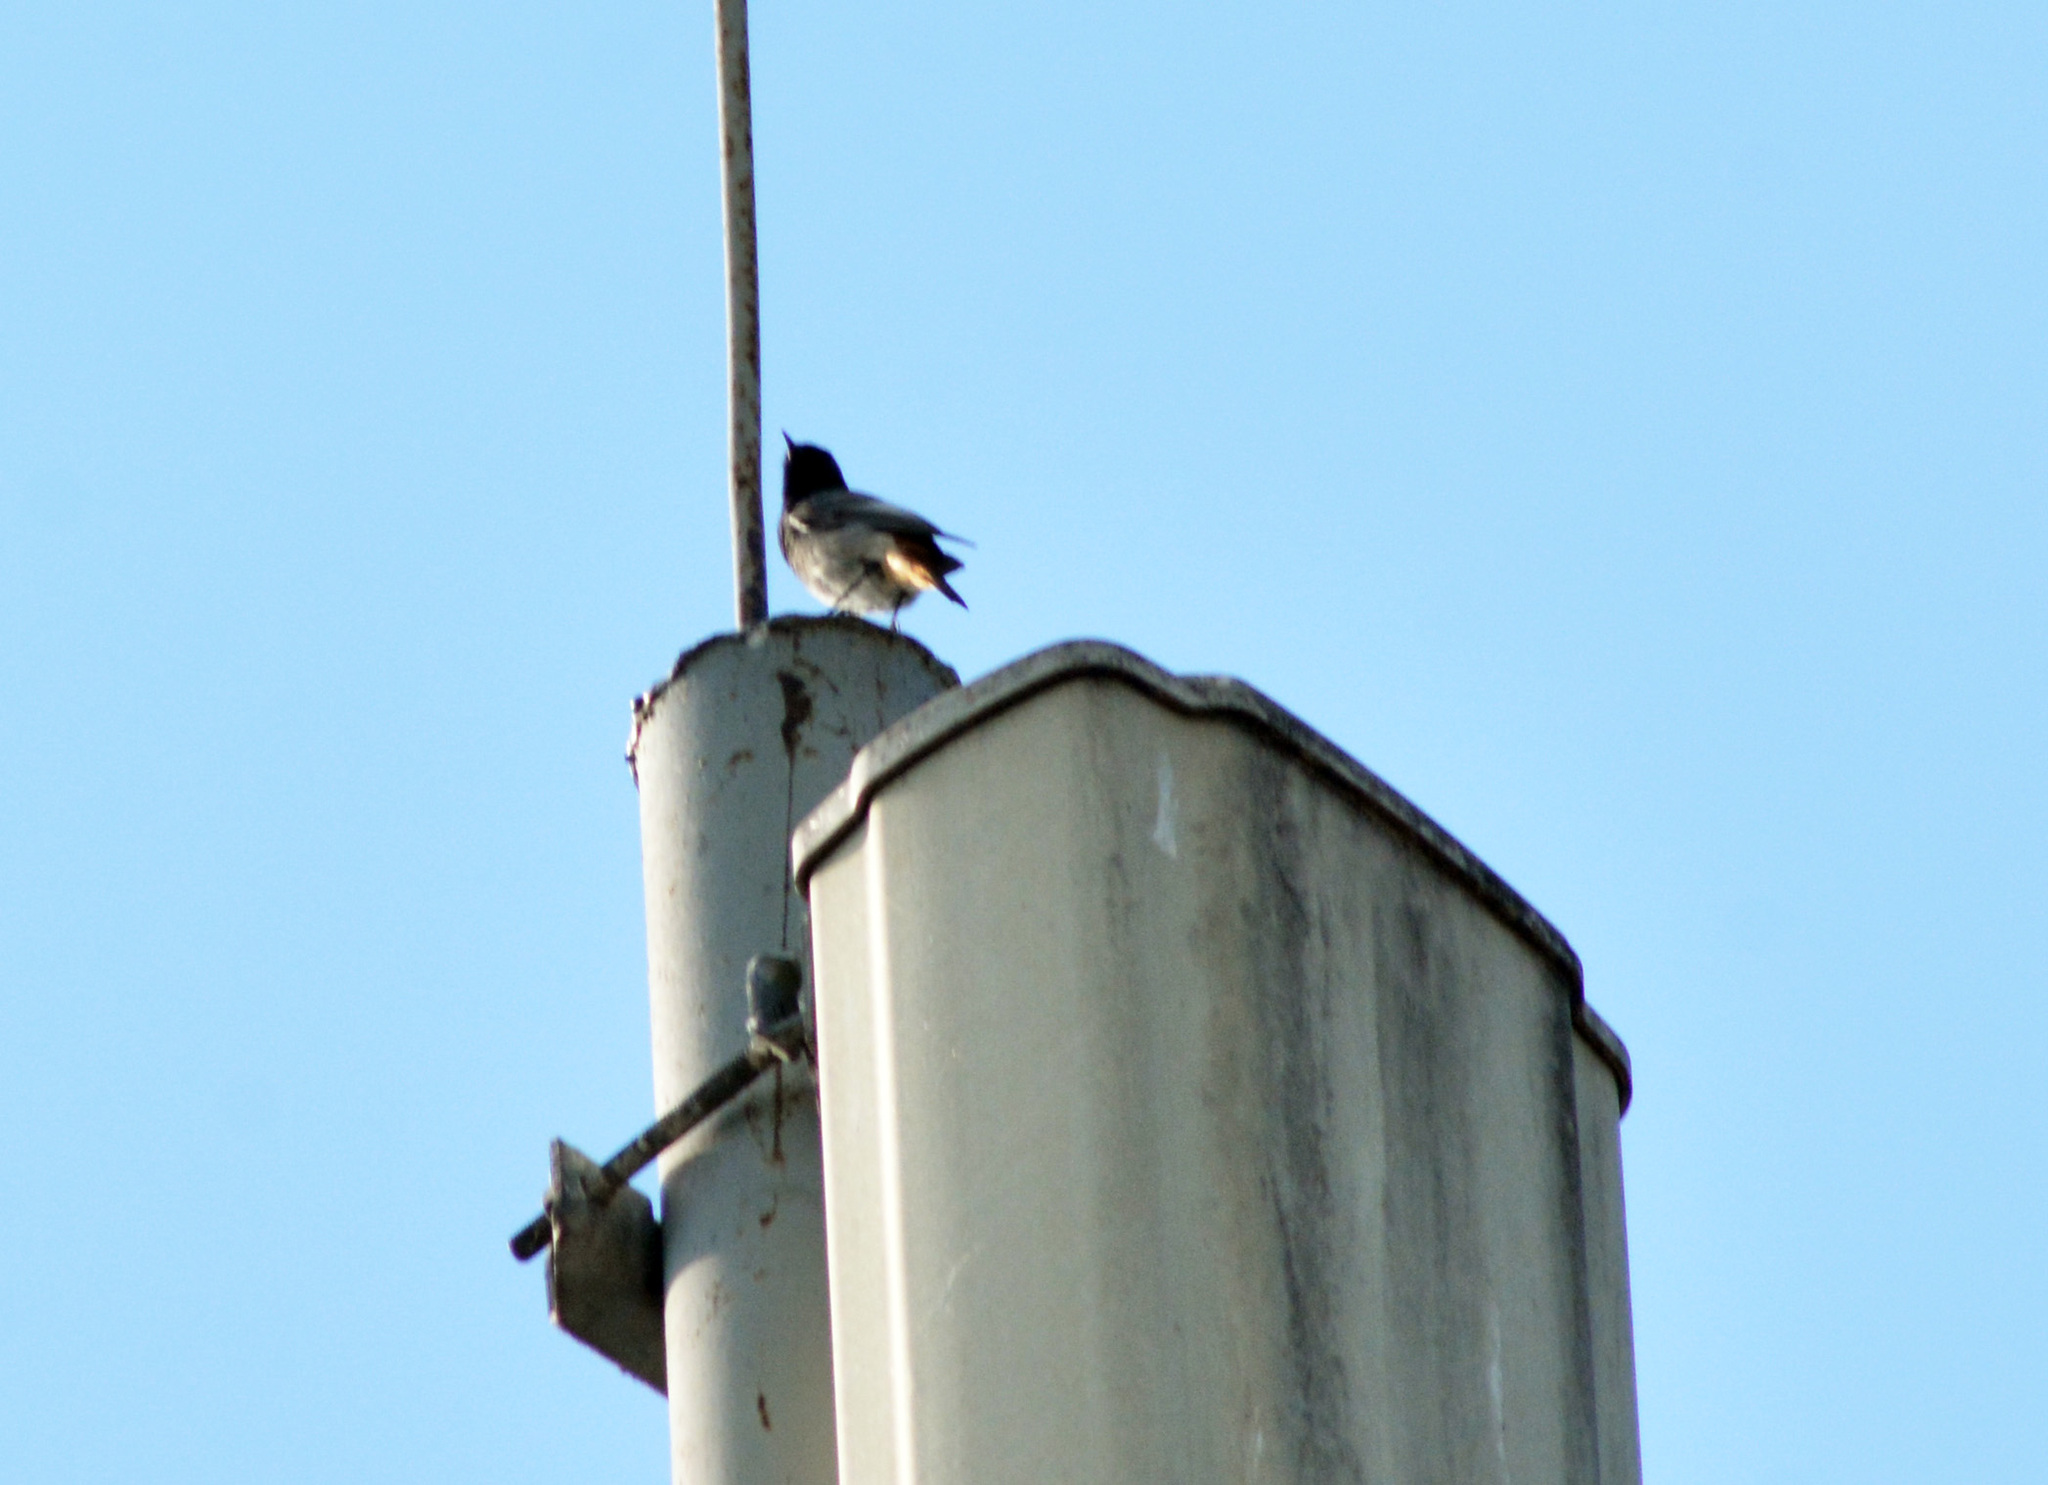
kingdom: Animalia
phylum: Chordata
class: Aves
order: Passeriformes
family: Muscicapidae
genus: Phoenicurus
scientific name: Phoenicurus ochruros
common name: Black redstart
